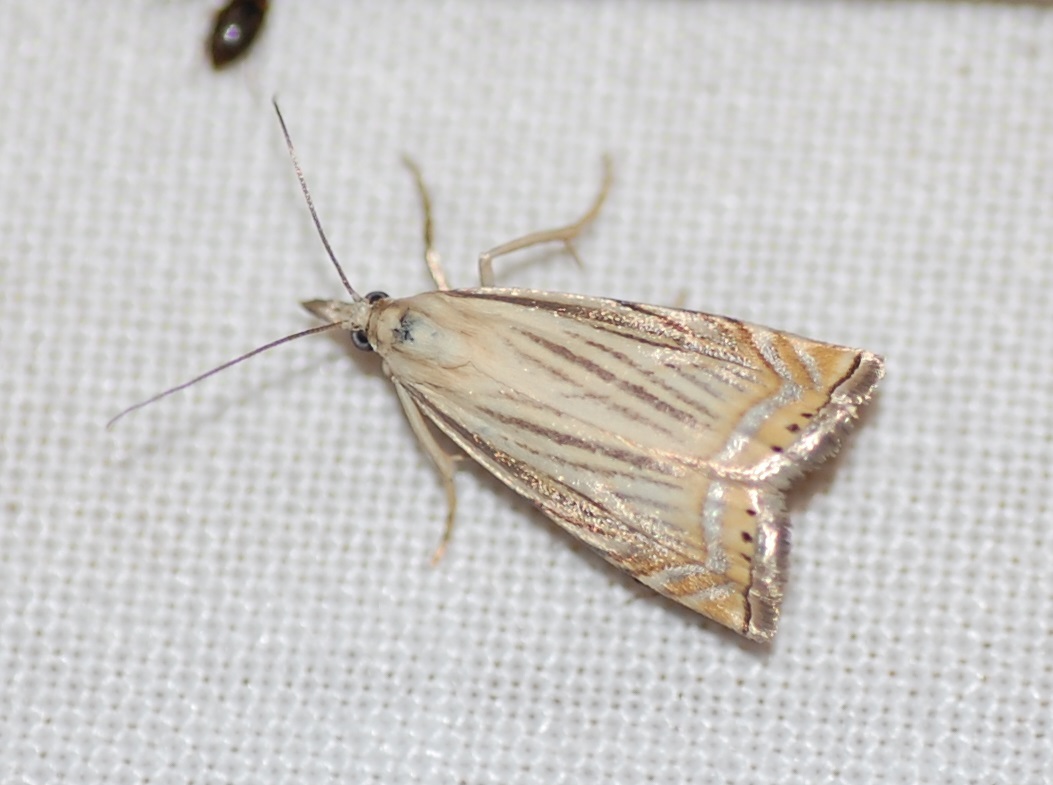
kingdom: Animalia
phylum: Arthropoda
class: Insecta
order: Lepidoptera
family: Crambidae
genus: Chrysoteuchia
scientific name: Chrysoteuchia topiarius
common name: Topiary grass-veneer
